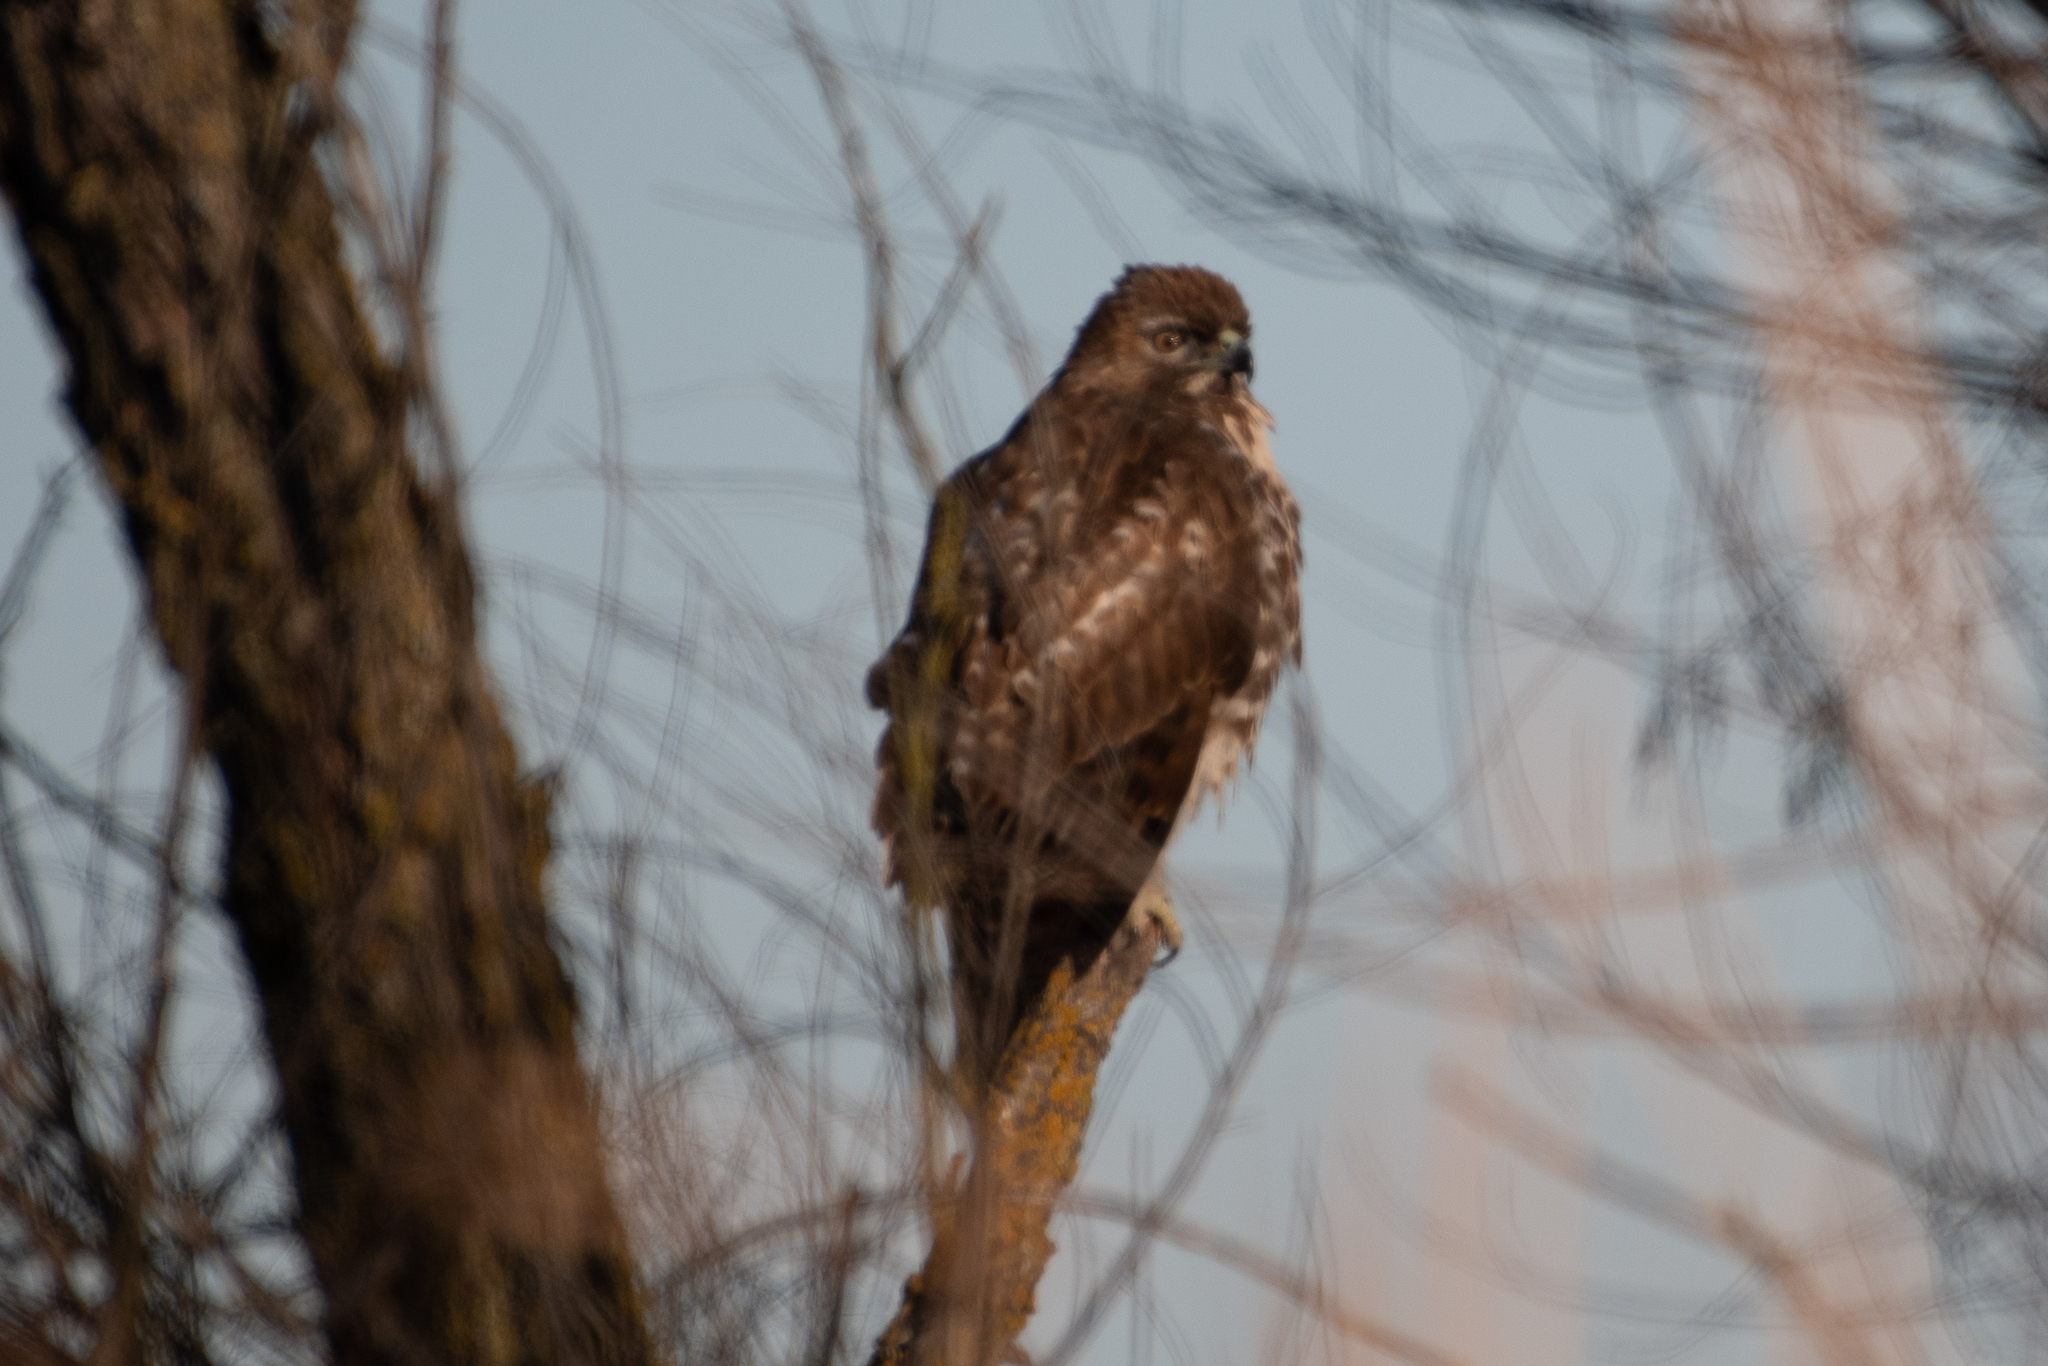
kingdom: Animalia
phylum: Chordata
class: Aves
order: Accipitriformes
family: Accipitridae
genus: Buteo
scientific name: Buteo jamaicensis
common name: Red-tailed hawk
